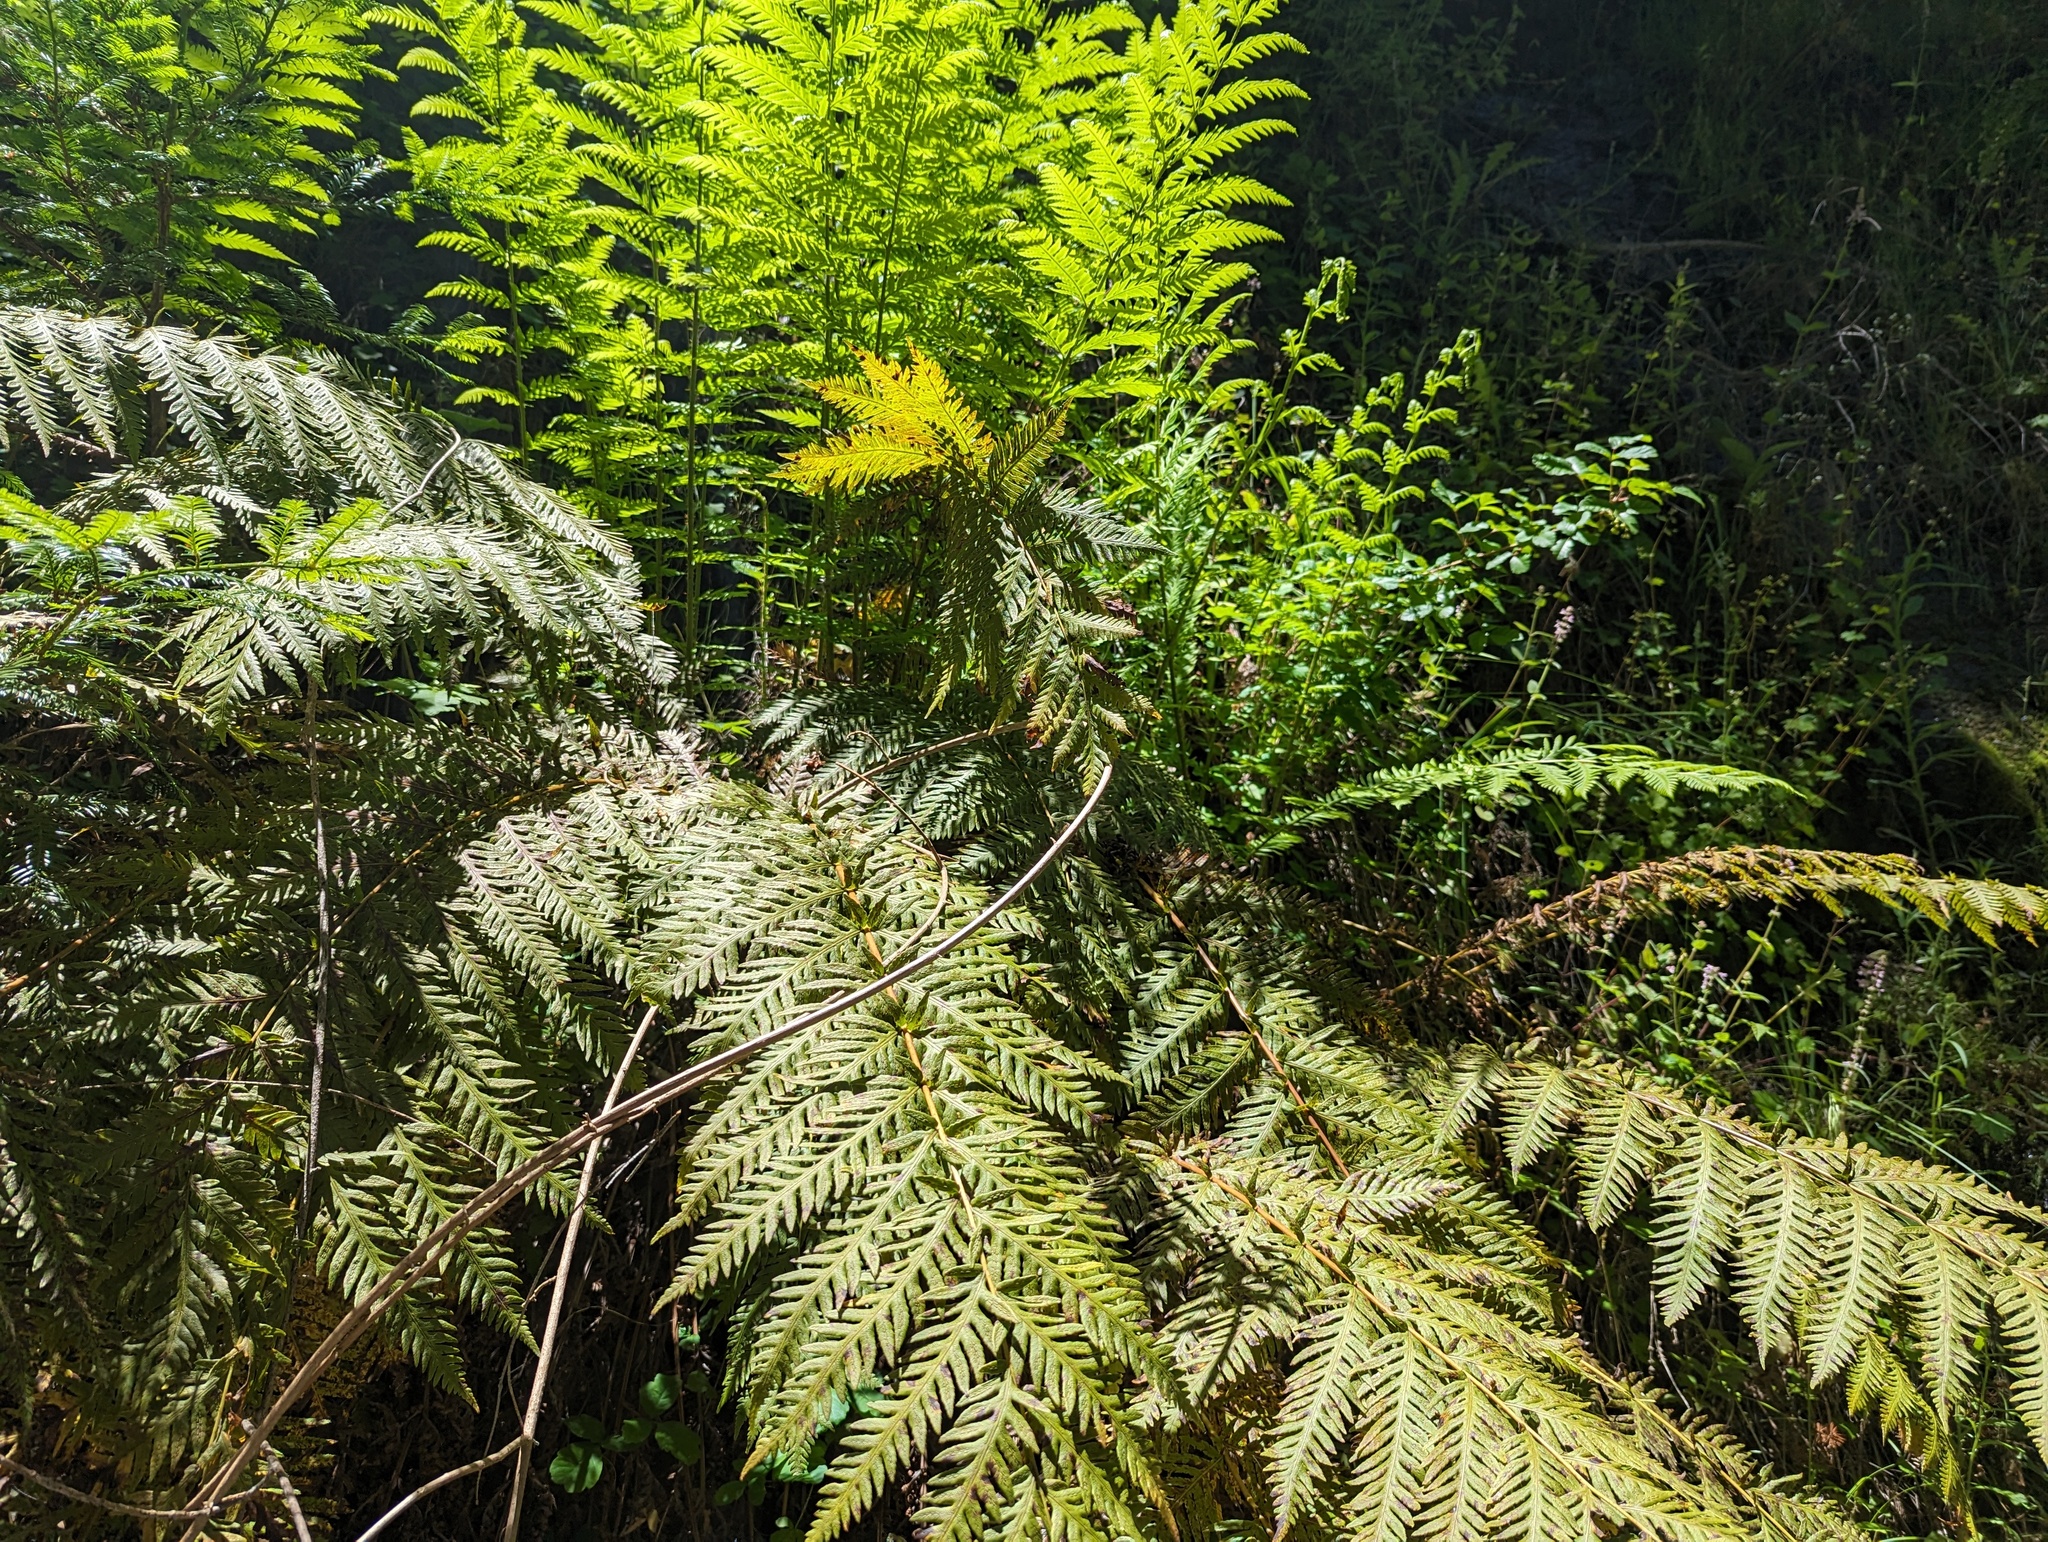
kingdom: Plantae
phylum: Tracheophyta
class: Polypodiopsida
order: Polypodiales
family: Blechnaceae
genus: Woodwardia
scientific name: Woodwardia fimbriata
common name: Giant chain fern
